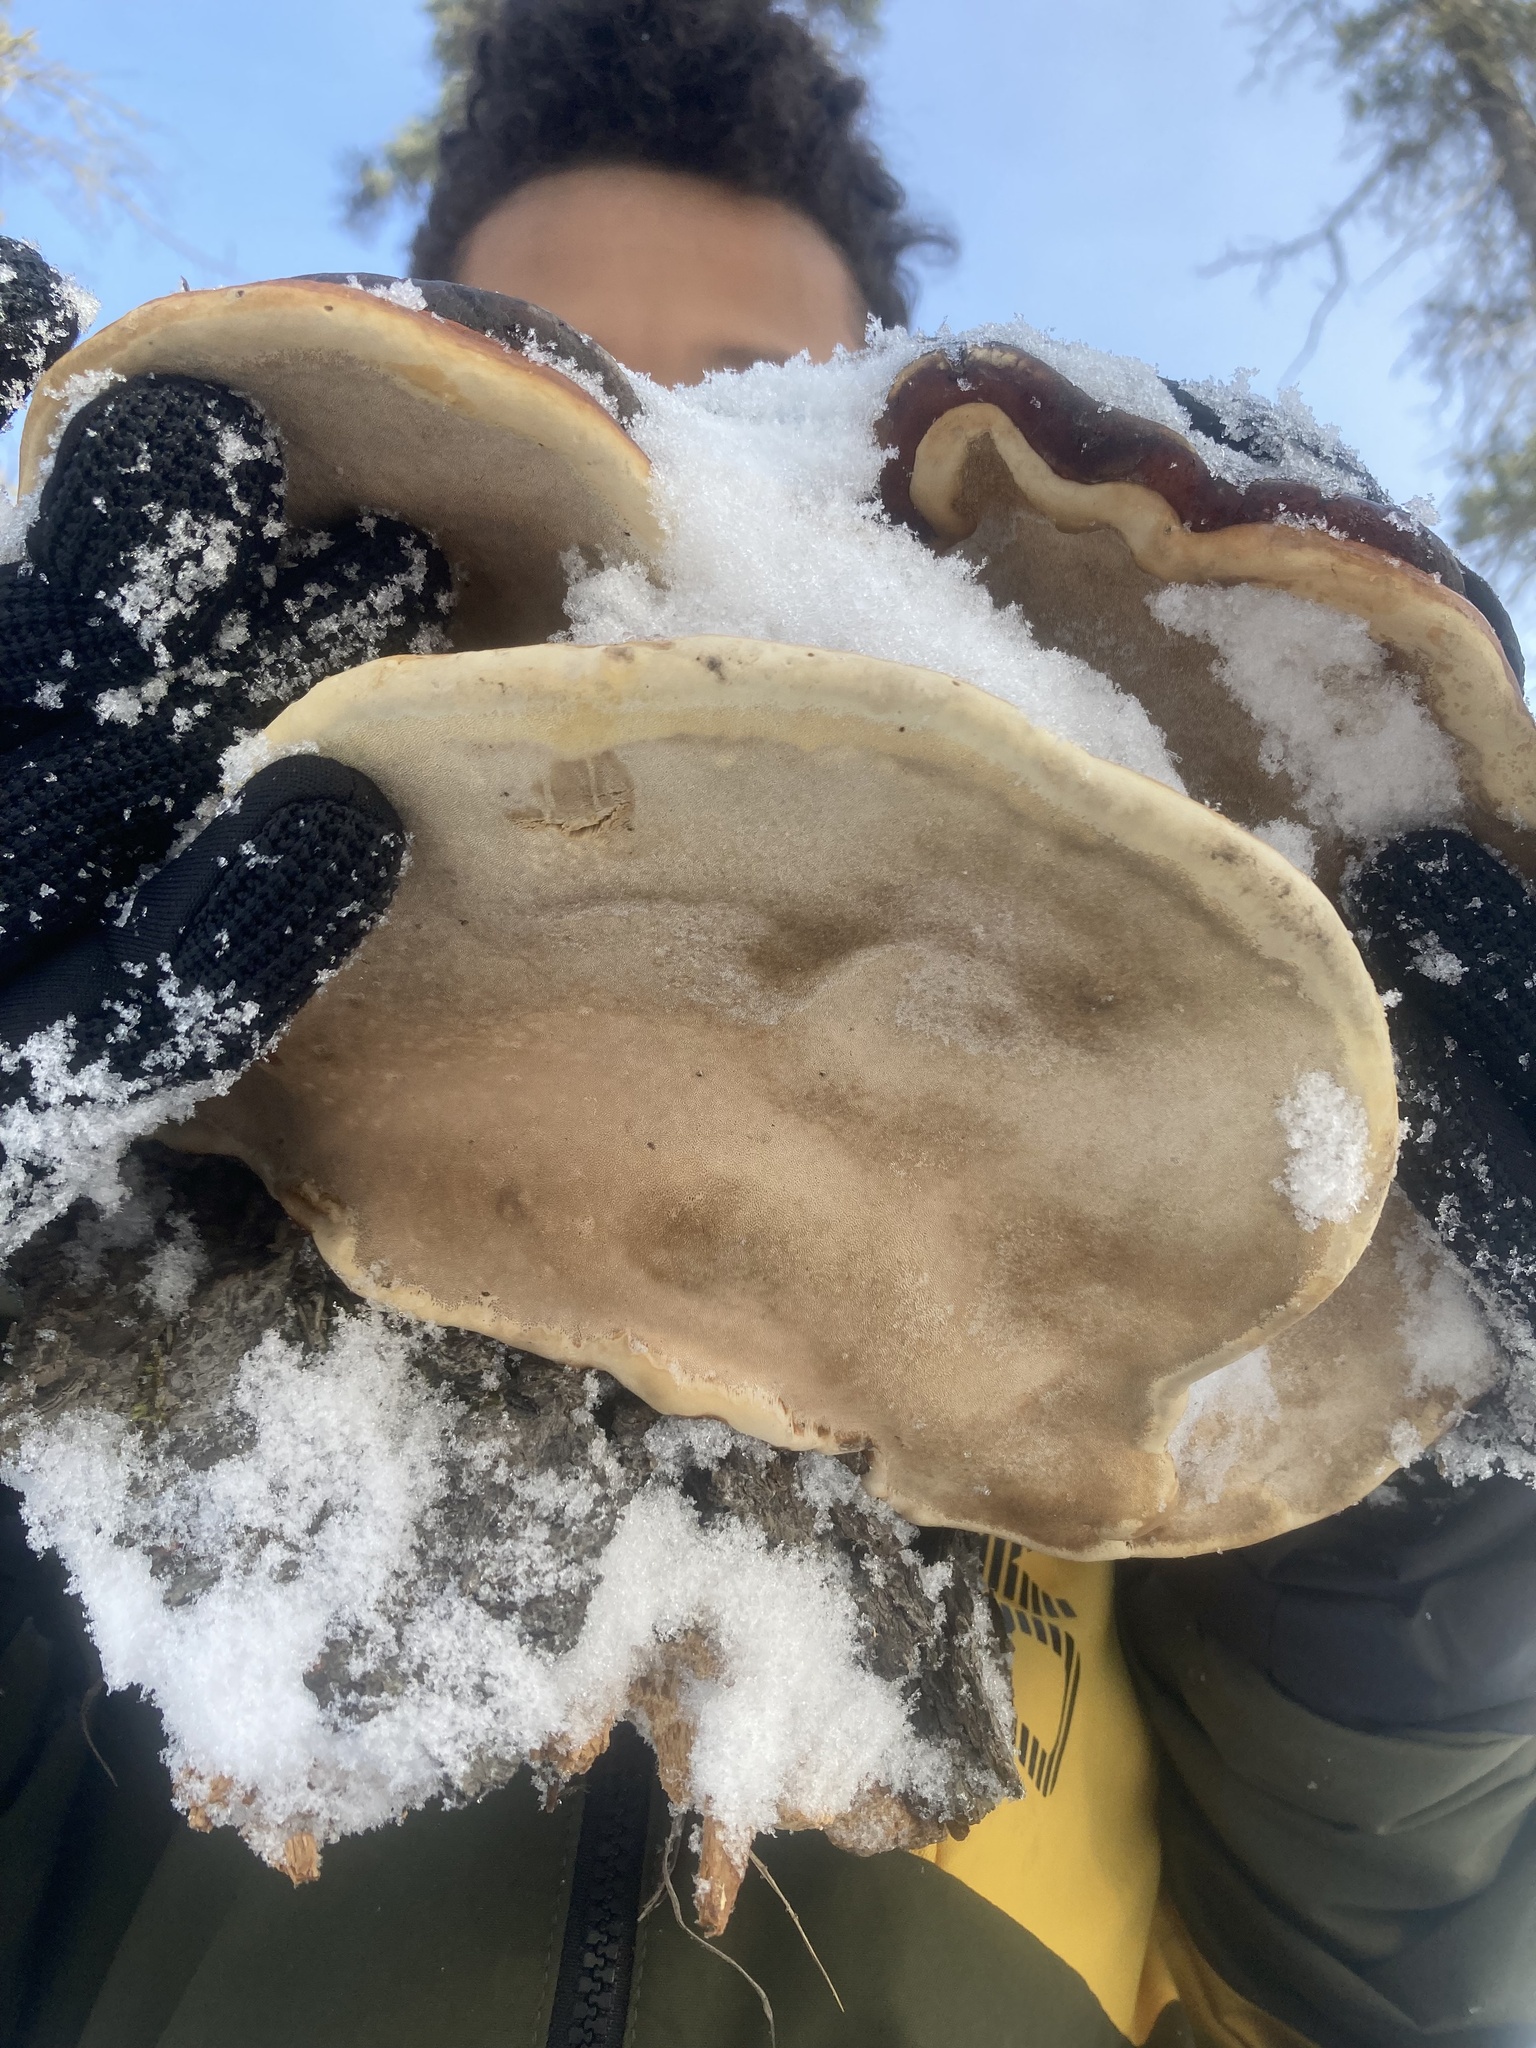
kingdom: Fungi
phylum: Basidiomycota
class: Agaricomycetes
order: Polyporales
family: Fomitopsidaceae
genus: Fomitopsis
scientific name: Fomitopsis mounceae
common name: Northern red belt
